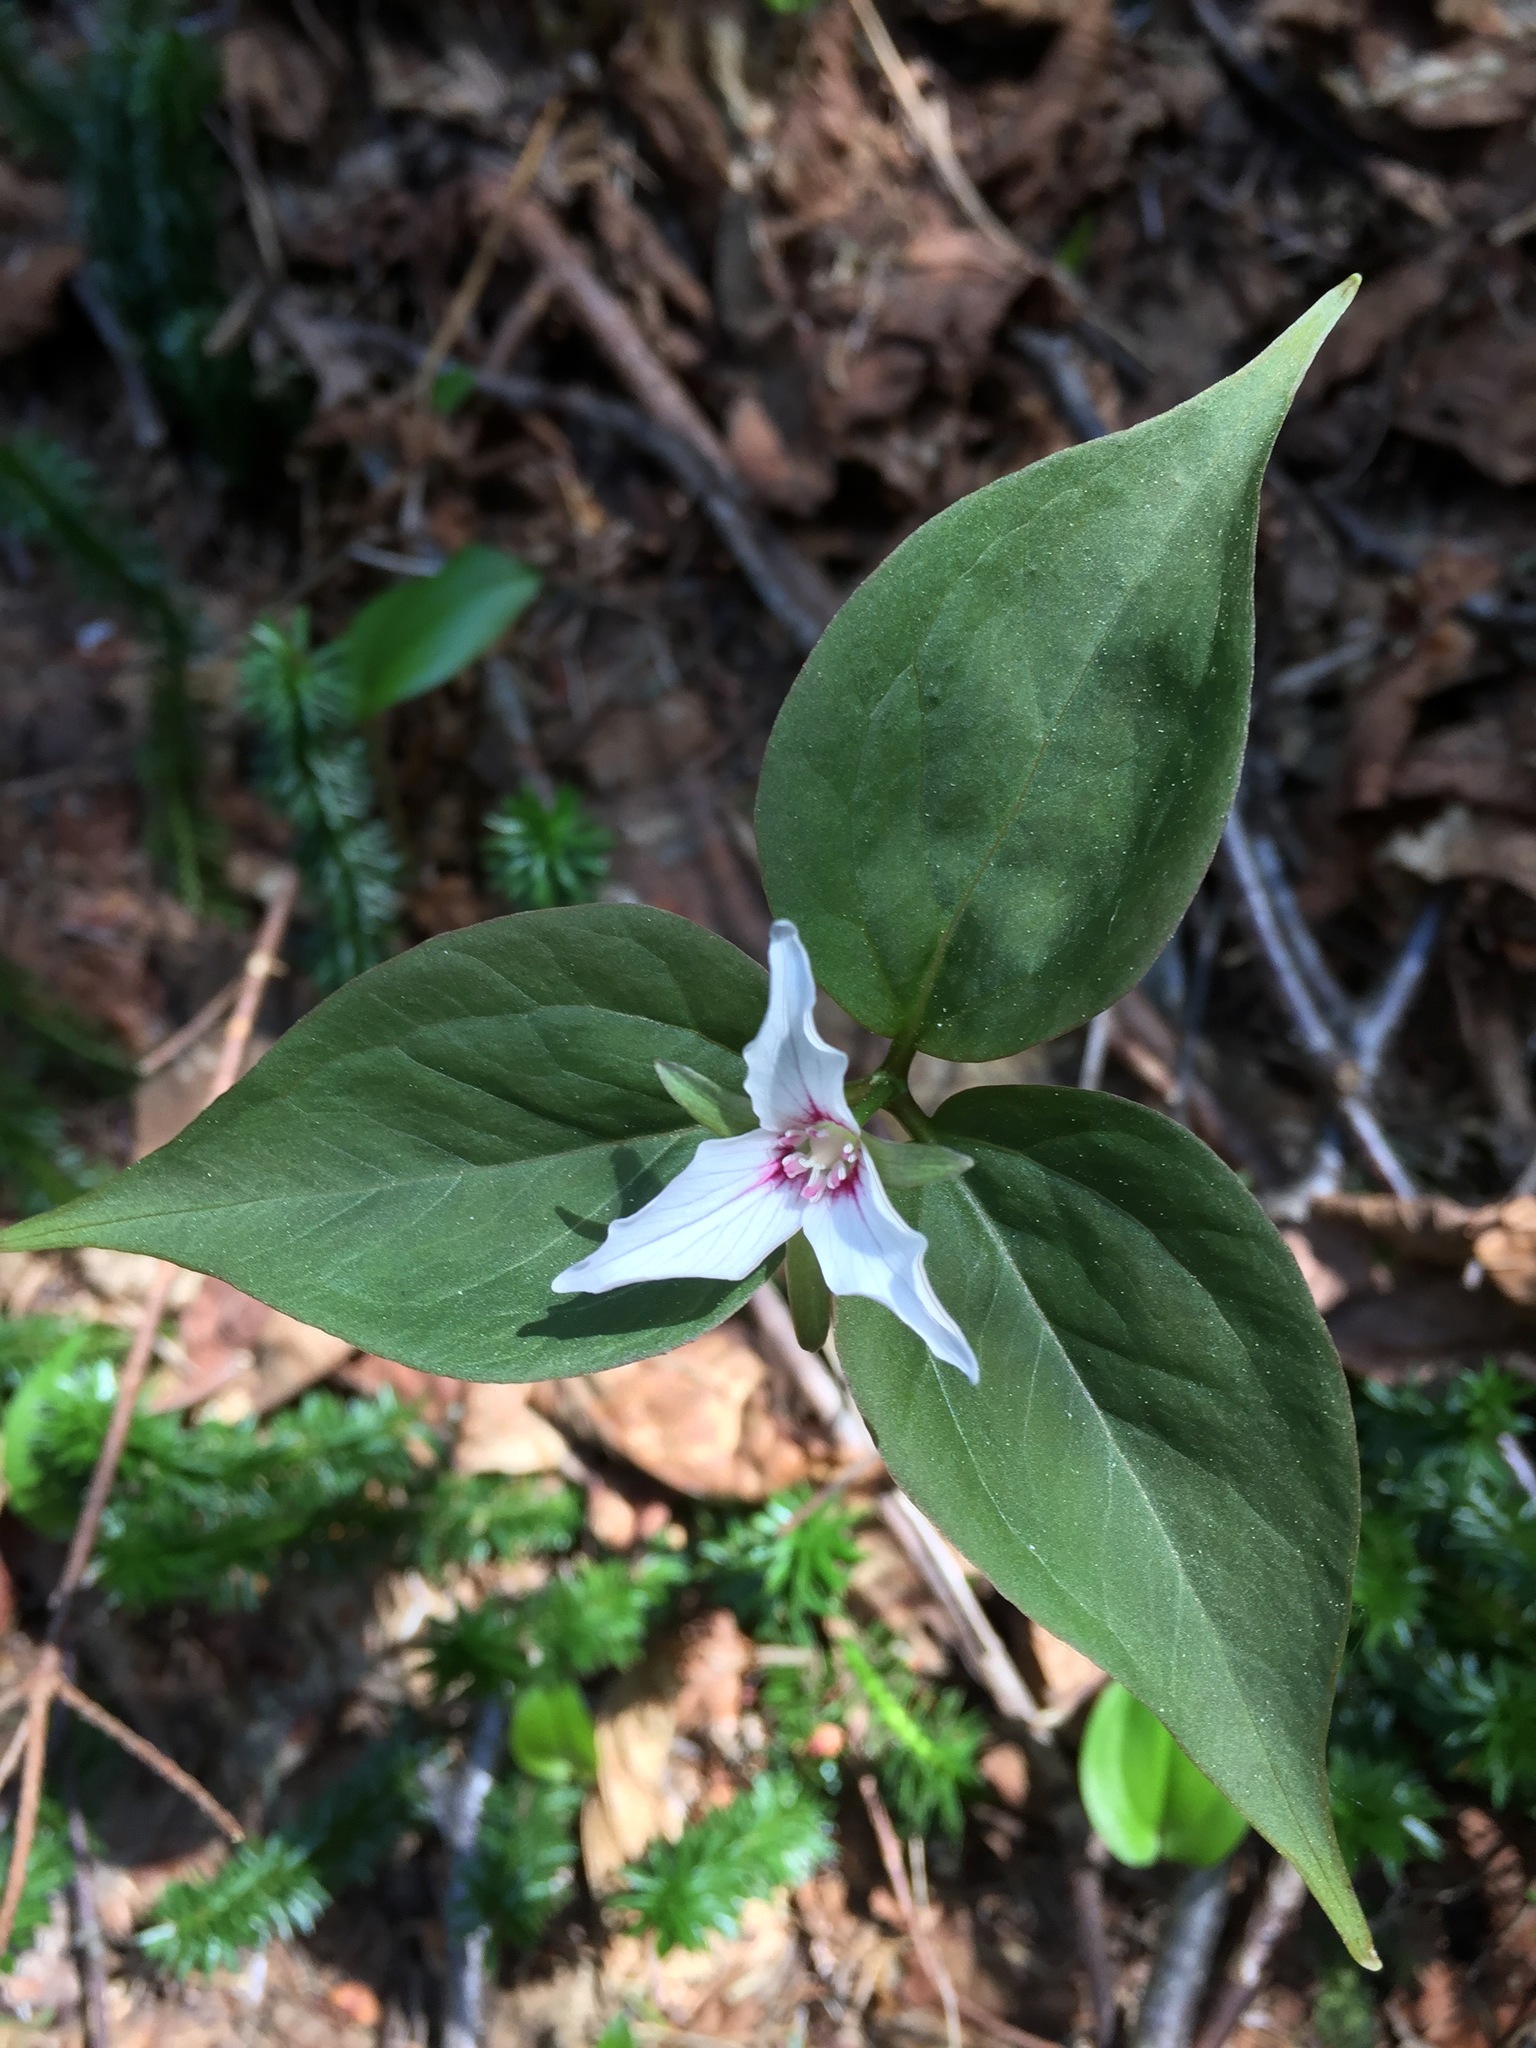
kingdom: Plantae
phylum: Tracheophyta
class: Liliopsida
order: Liliales
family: Melanthiaceae
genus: Trillium
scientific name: Trillium undulatum
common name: Paint trillium
